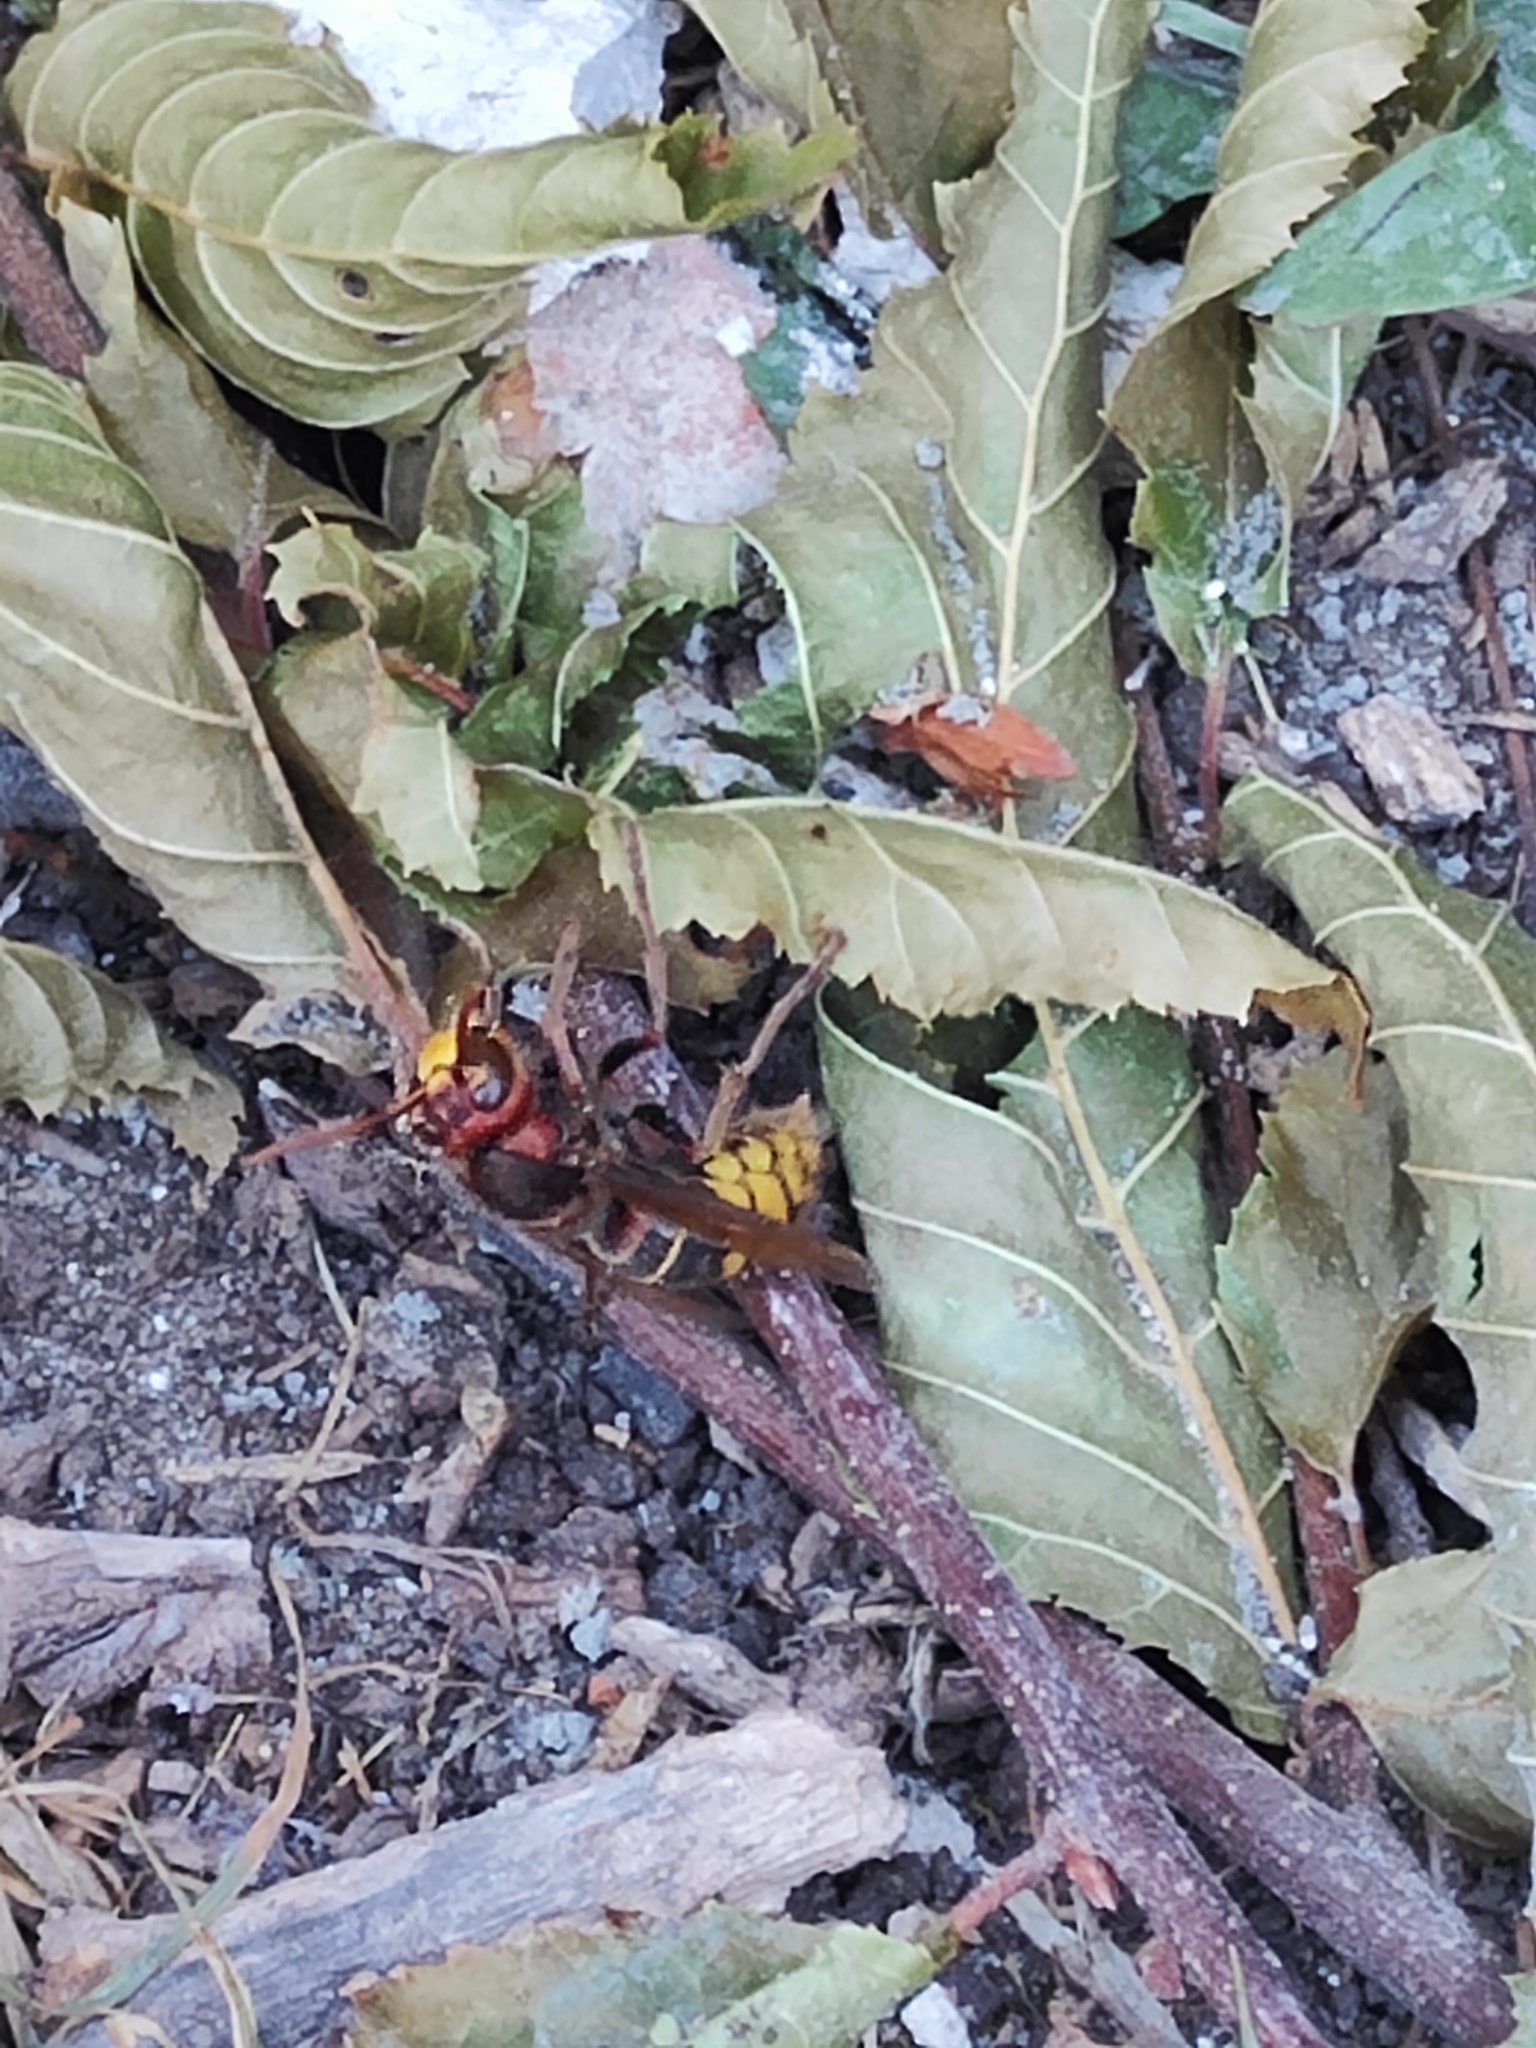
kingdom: Animalia
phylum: Arthropoda
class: Insecta
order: Hymenoptera
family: Vespidae
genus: Vespa
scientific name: Vespa crabro
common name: Hornet
